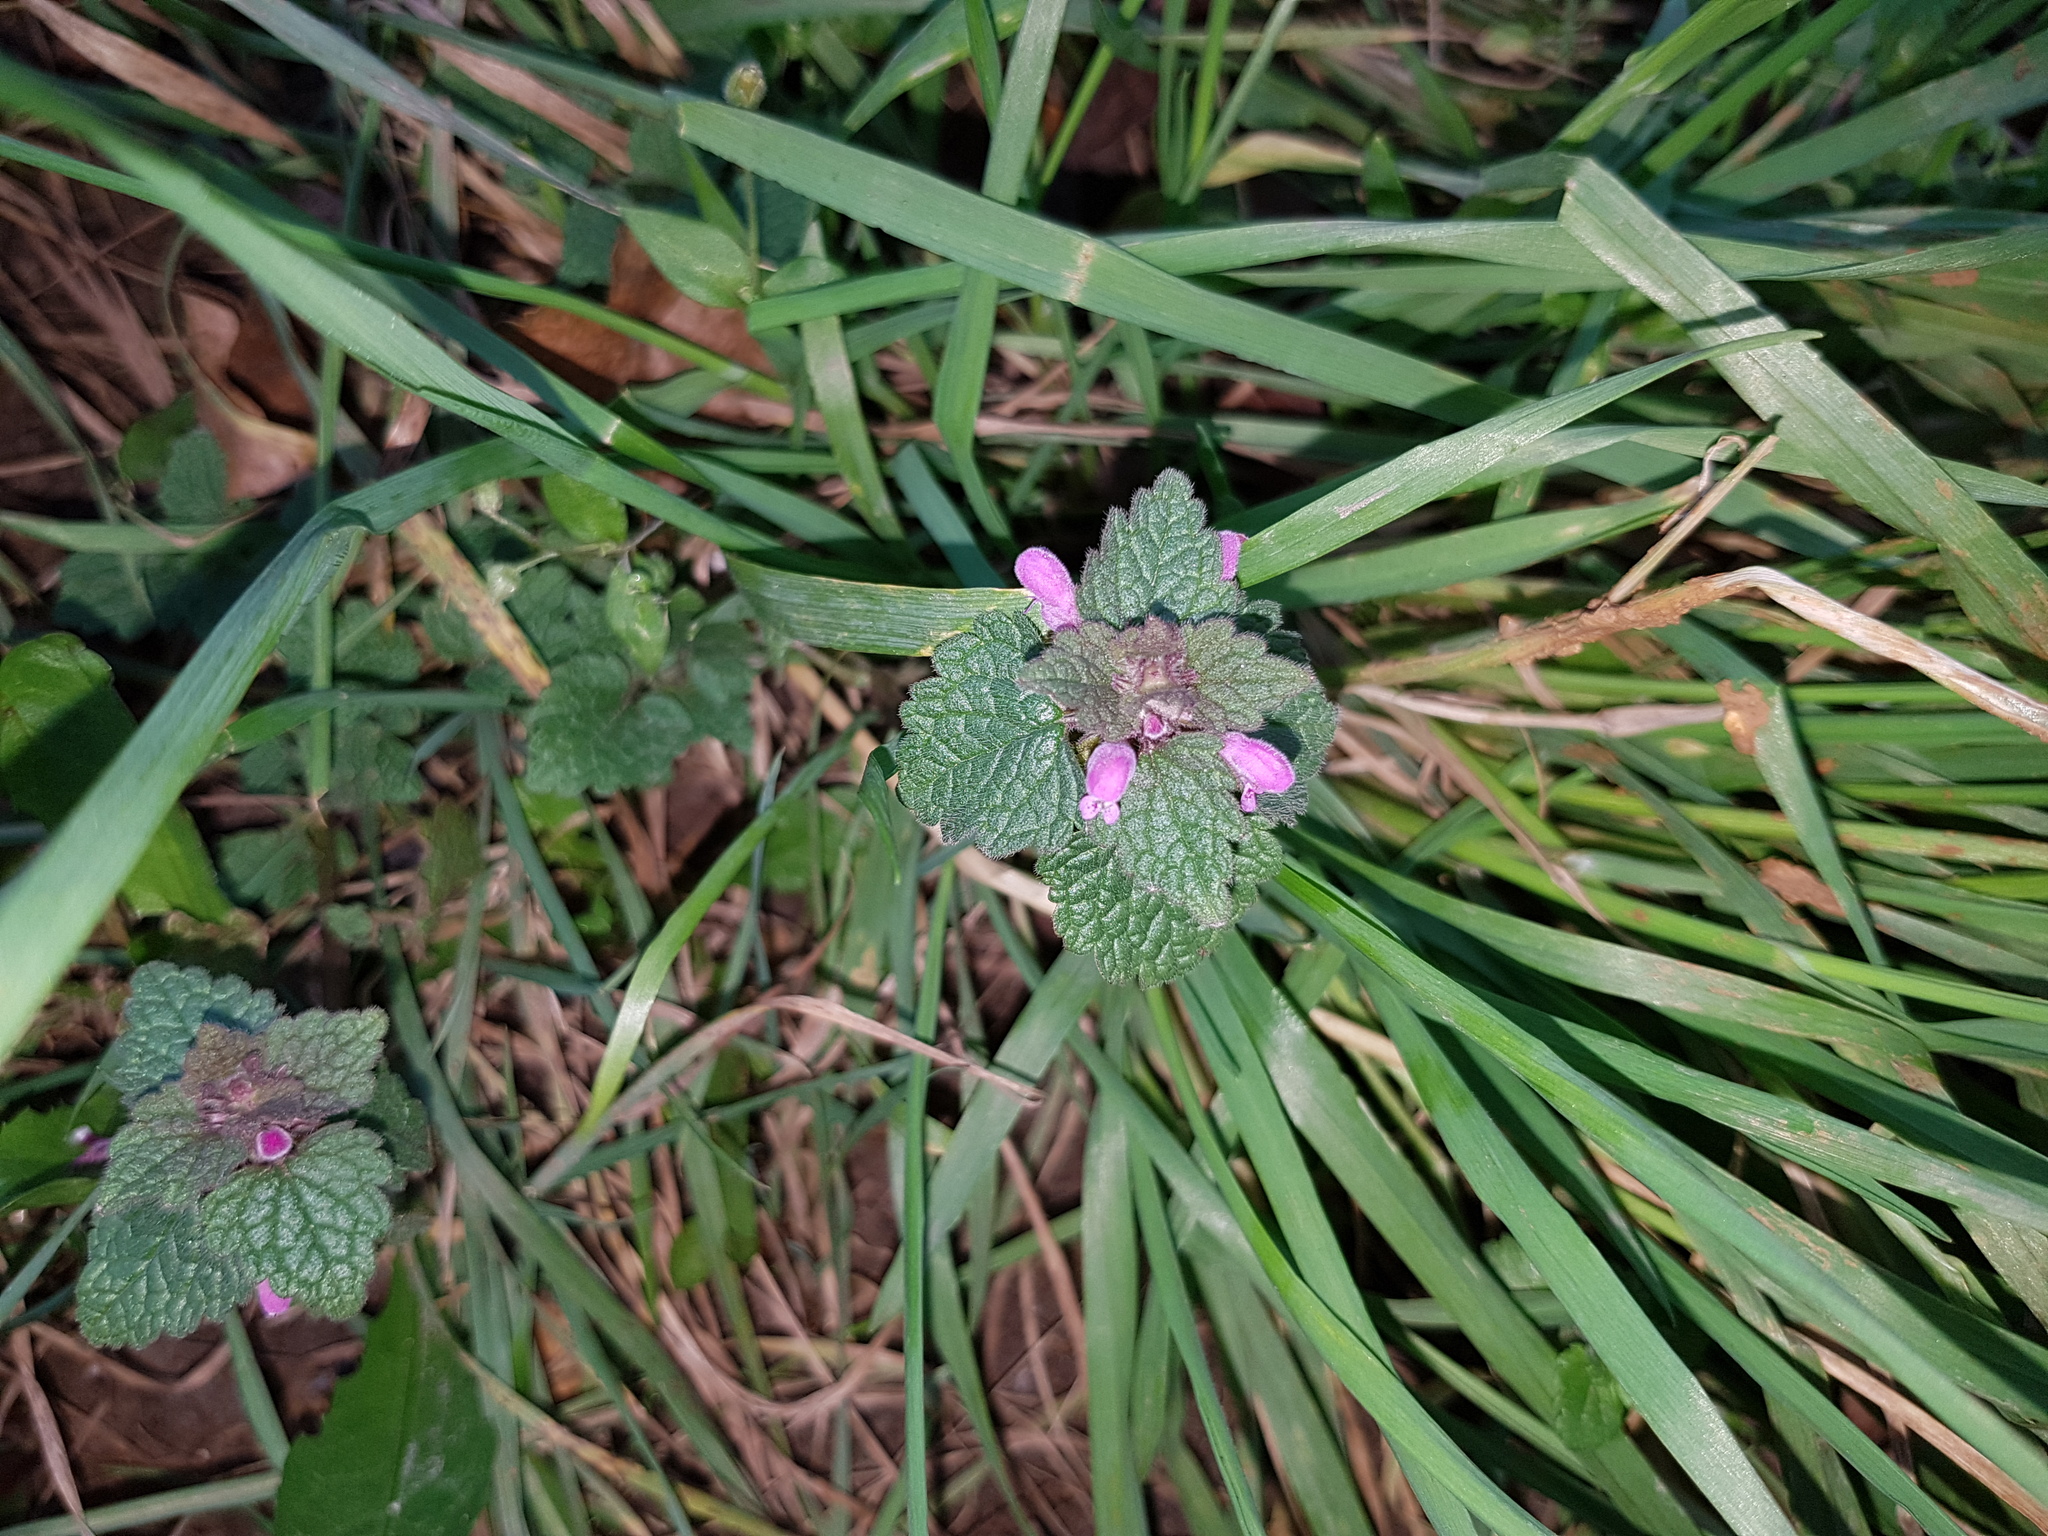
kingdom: Plantae
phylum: Tracheophyta
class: Magnoliopsida
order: Lamiales
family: Lamiaceae
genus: Lamium
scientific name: Lamium purpureum
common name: Red dead-nettle
